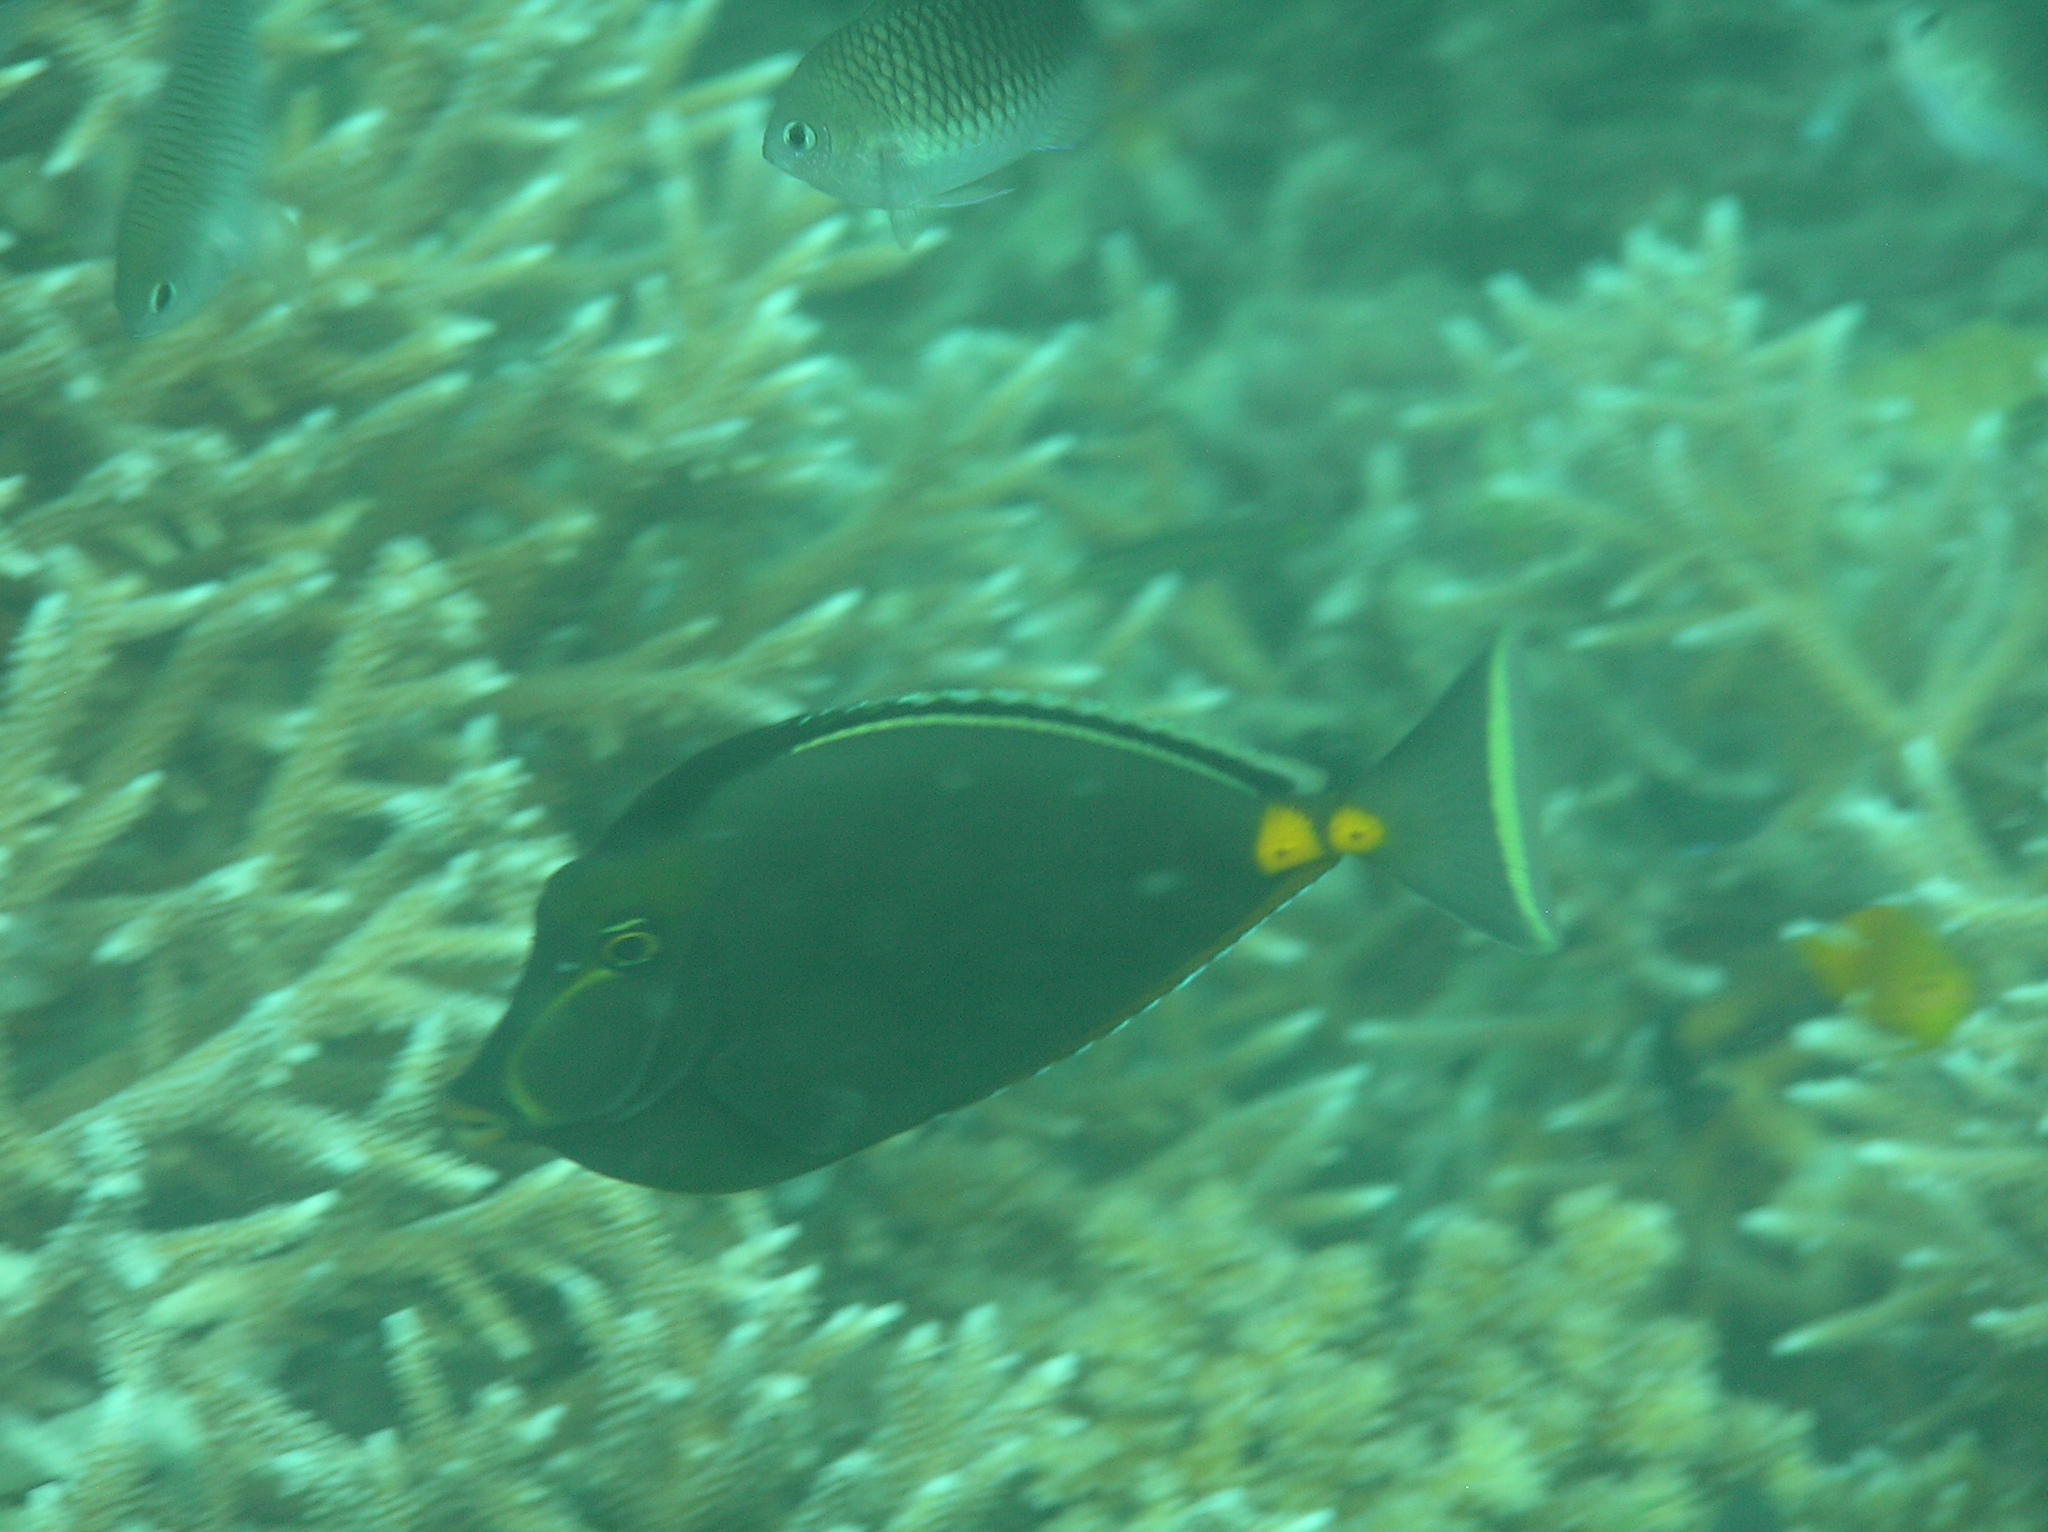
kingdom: Animalia
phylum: Chordata
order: Perciformes
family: Acanthuridae
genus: Naso
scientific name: Naso lituratus
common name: Orangespine unicornfish
